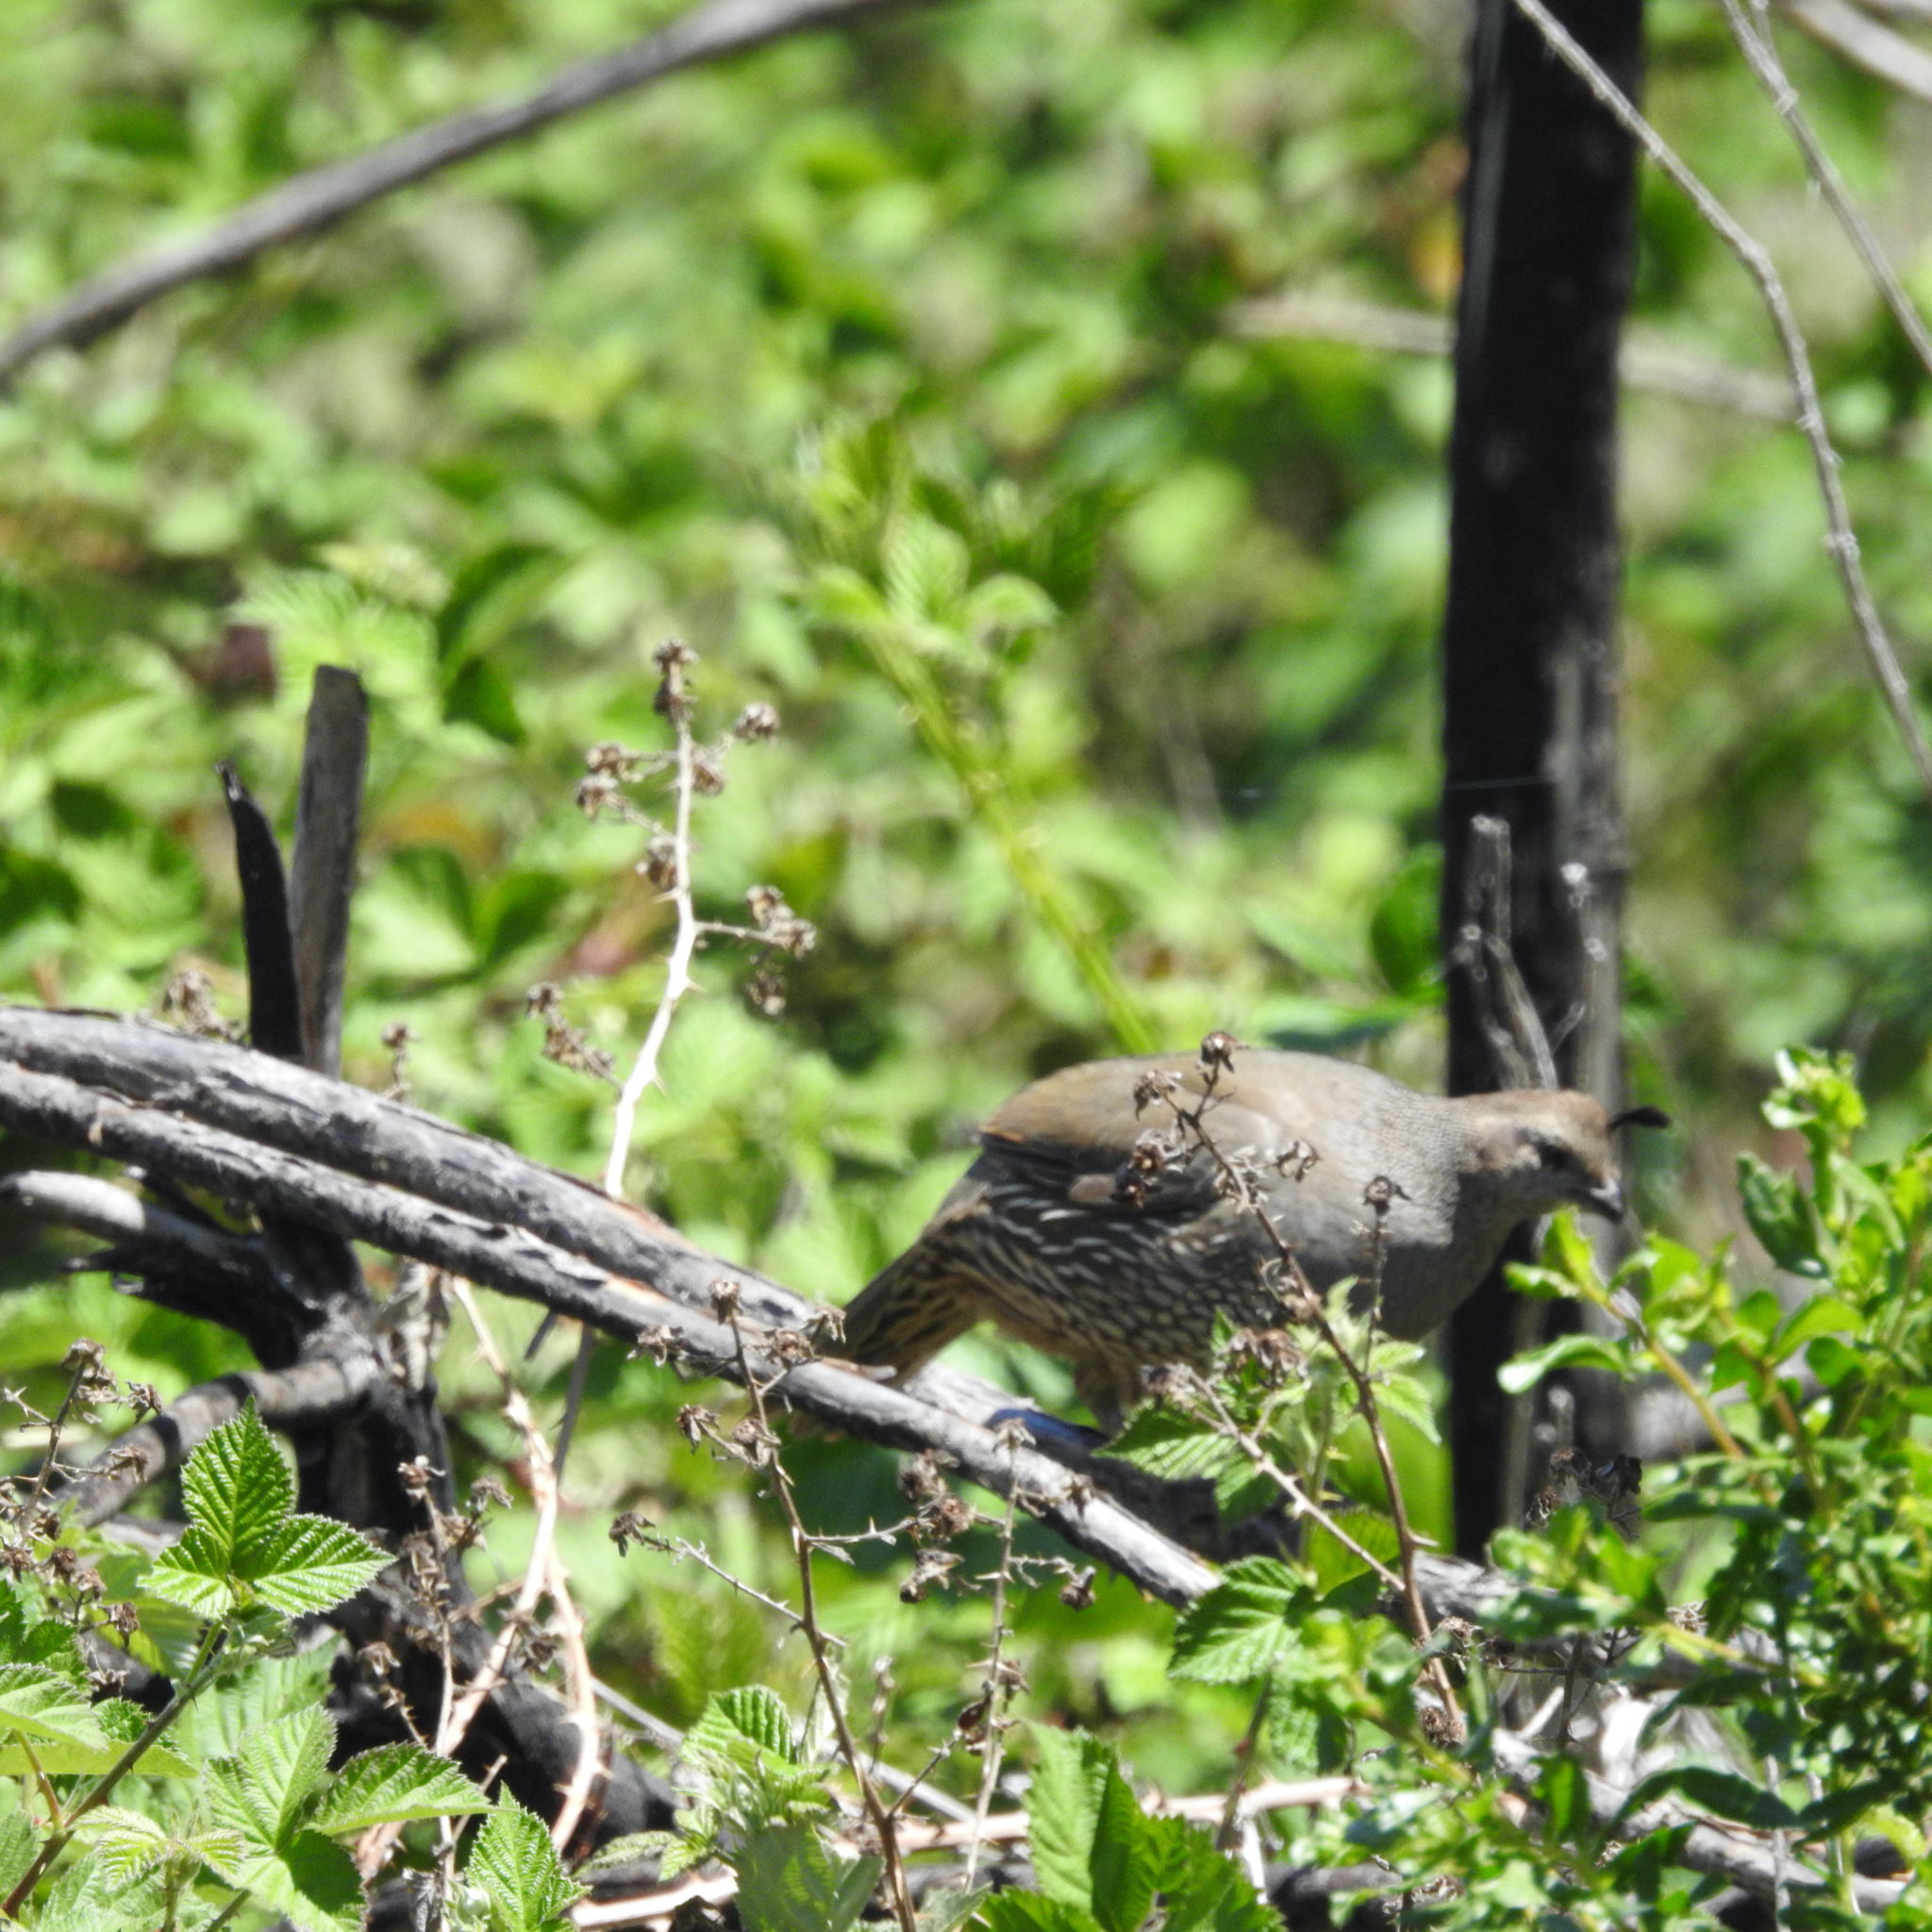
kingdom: Animalia
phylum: Chordata
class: Aves
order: Galliformes
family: Odontophoridae
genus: Callipepla
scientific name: Callipepla californica
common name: California quail
